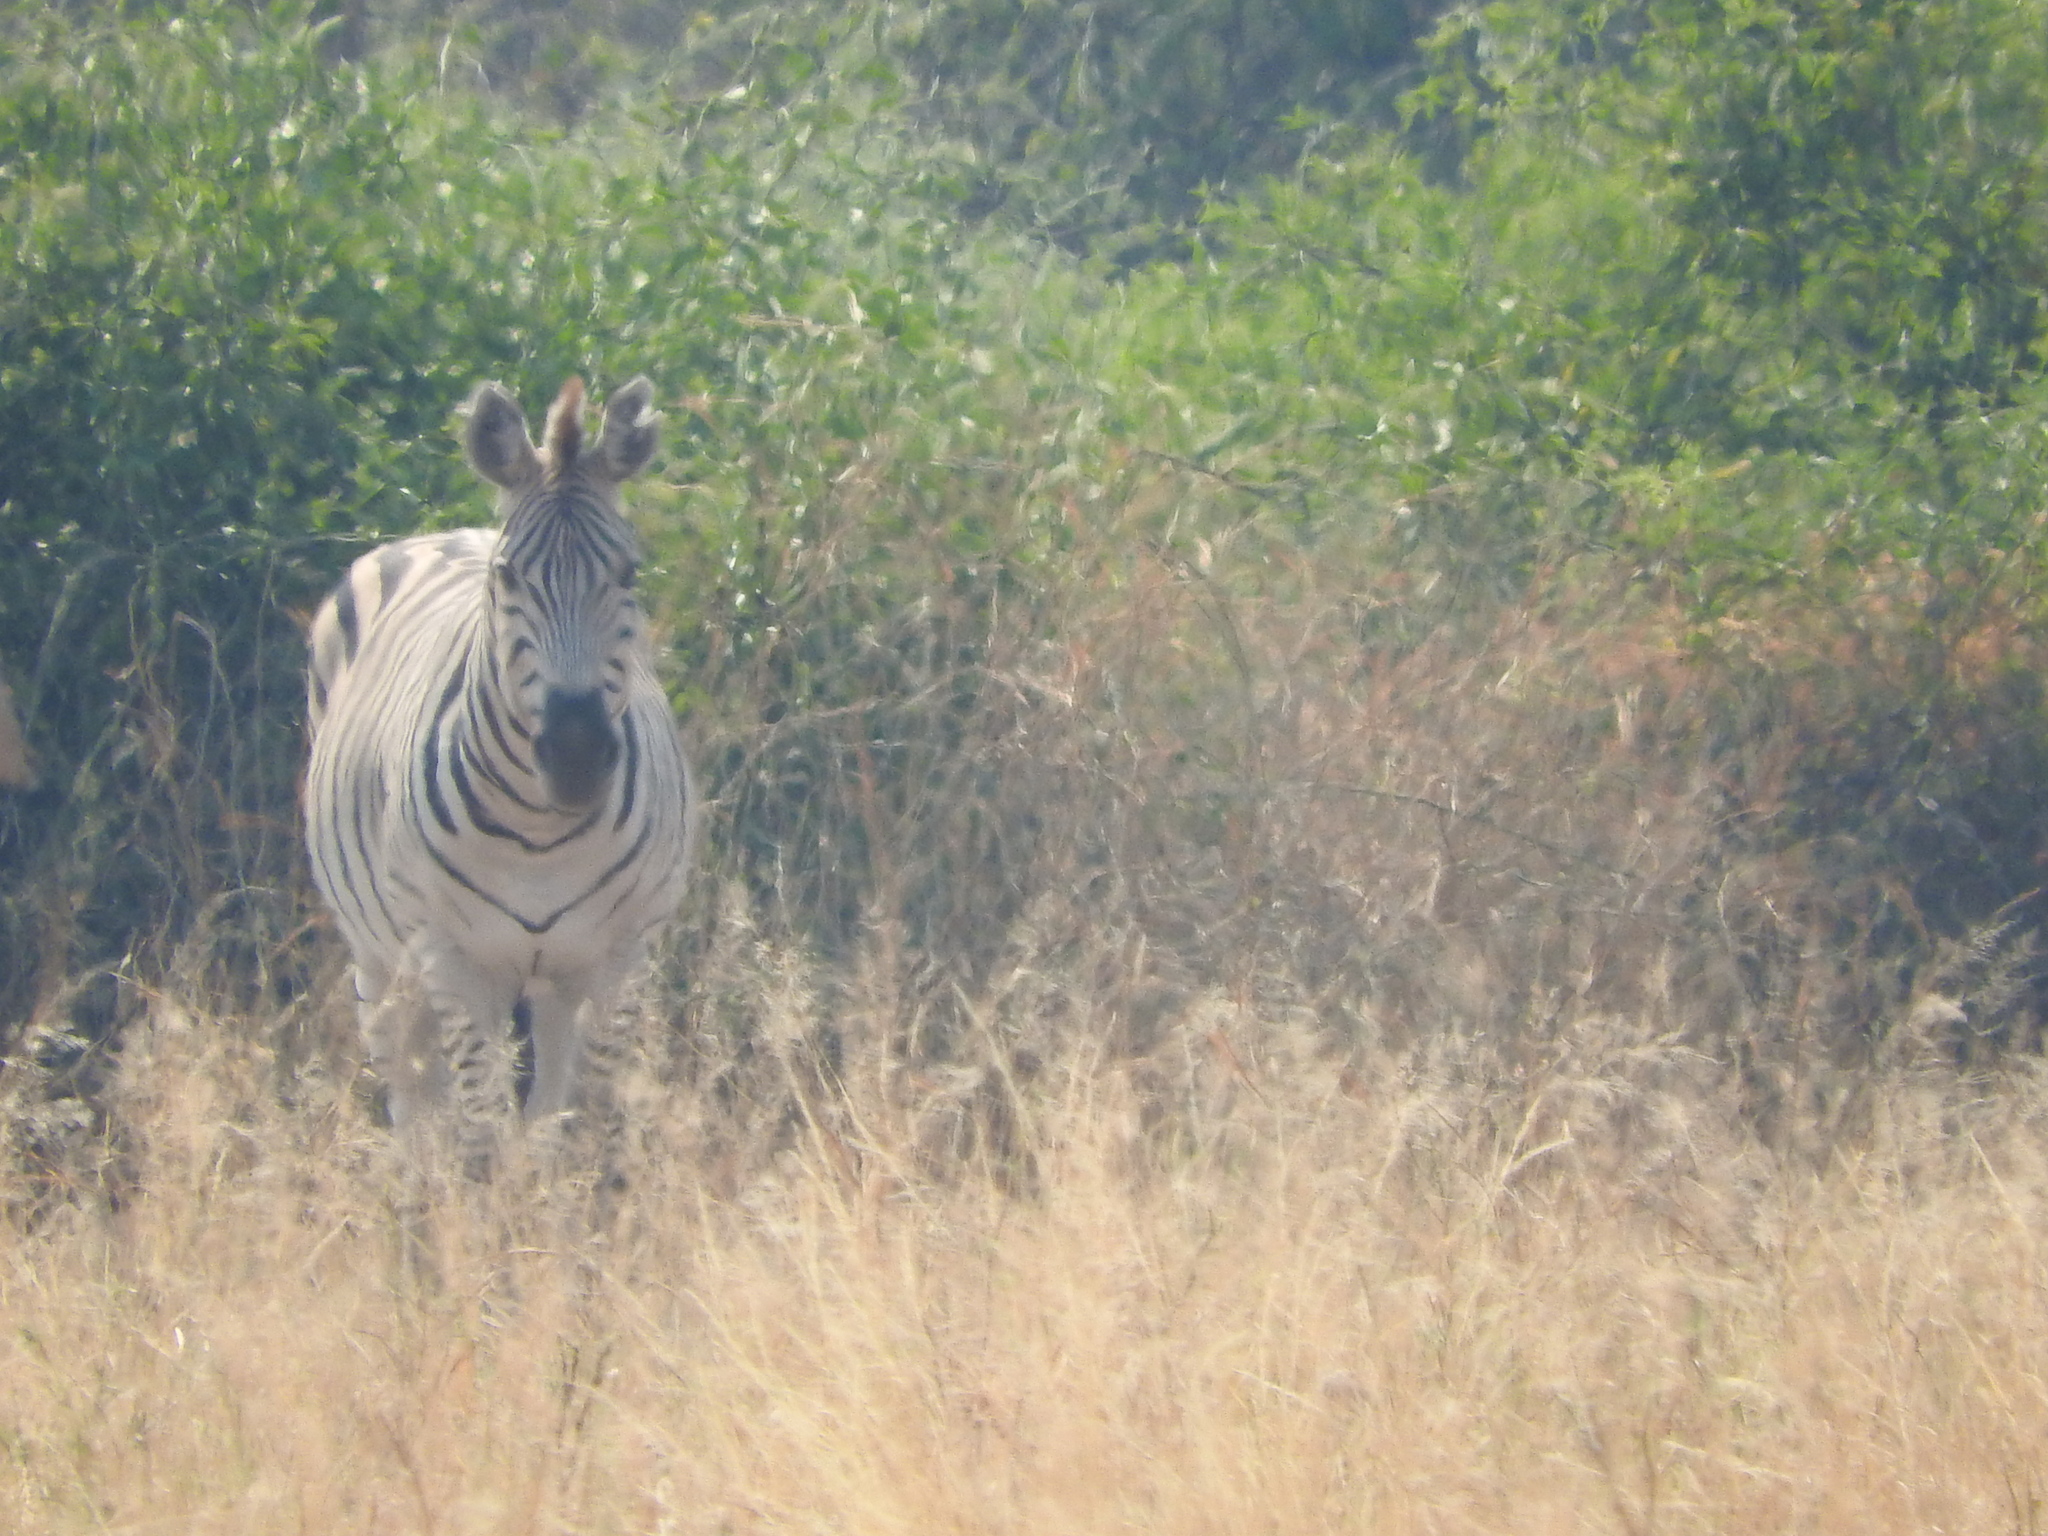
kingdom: Animalia
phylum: Chordata
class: Mammalia
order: Perissodactyla
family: Equidae
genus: Equus
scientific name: Equus quagga
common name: Plains zebra
